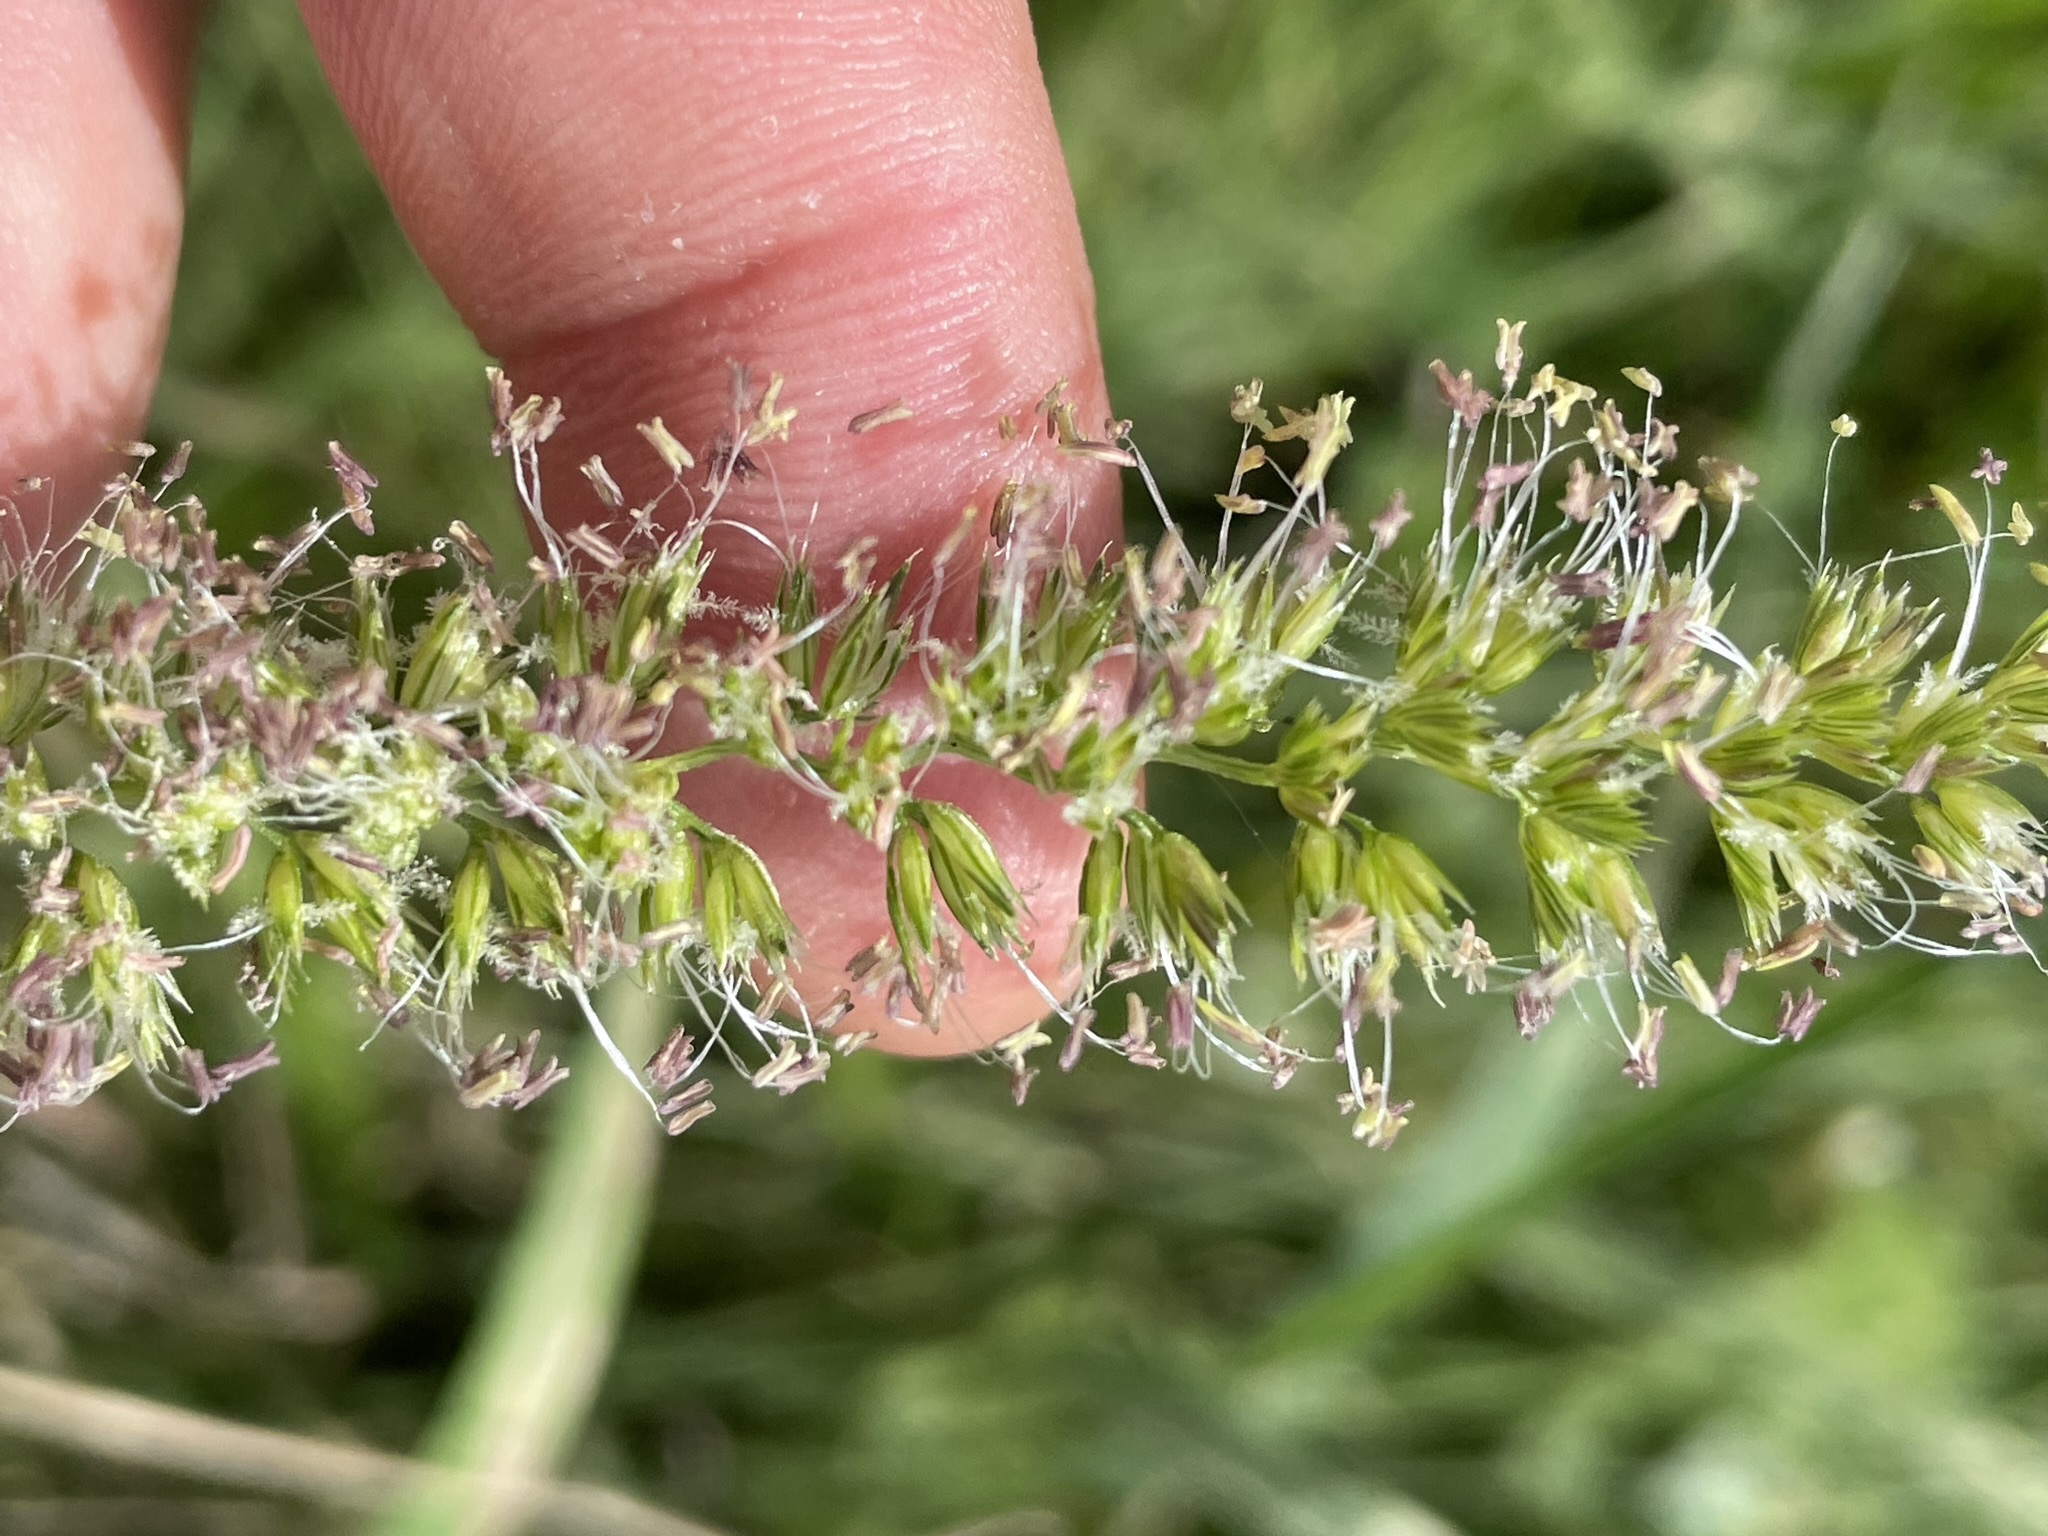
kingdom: Plantae
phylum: Tracheophyta
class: Liliopsida
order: Poales
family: Poaceae
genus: Cynosurus
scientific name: Cynosurus cristatus
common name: Crested dog's-tail
